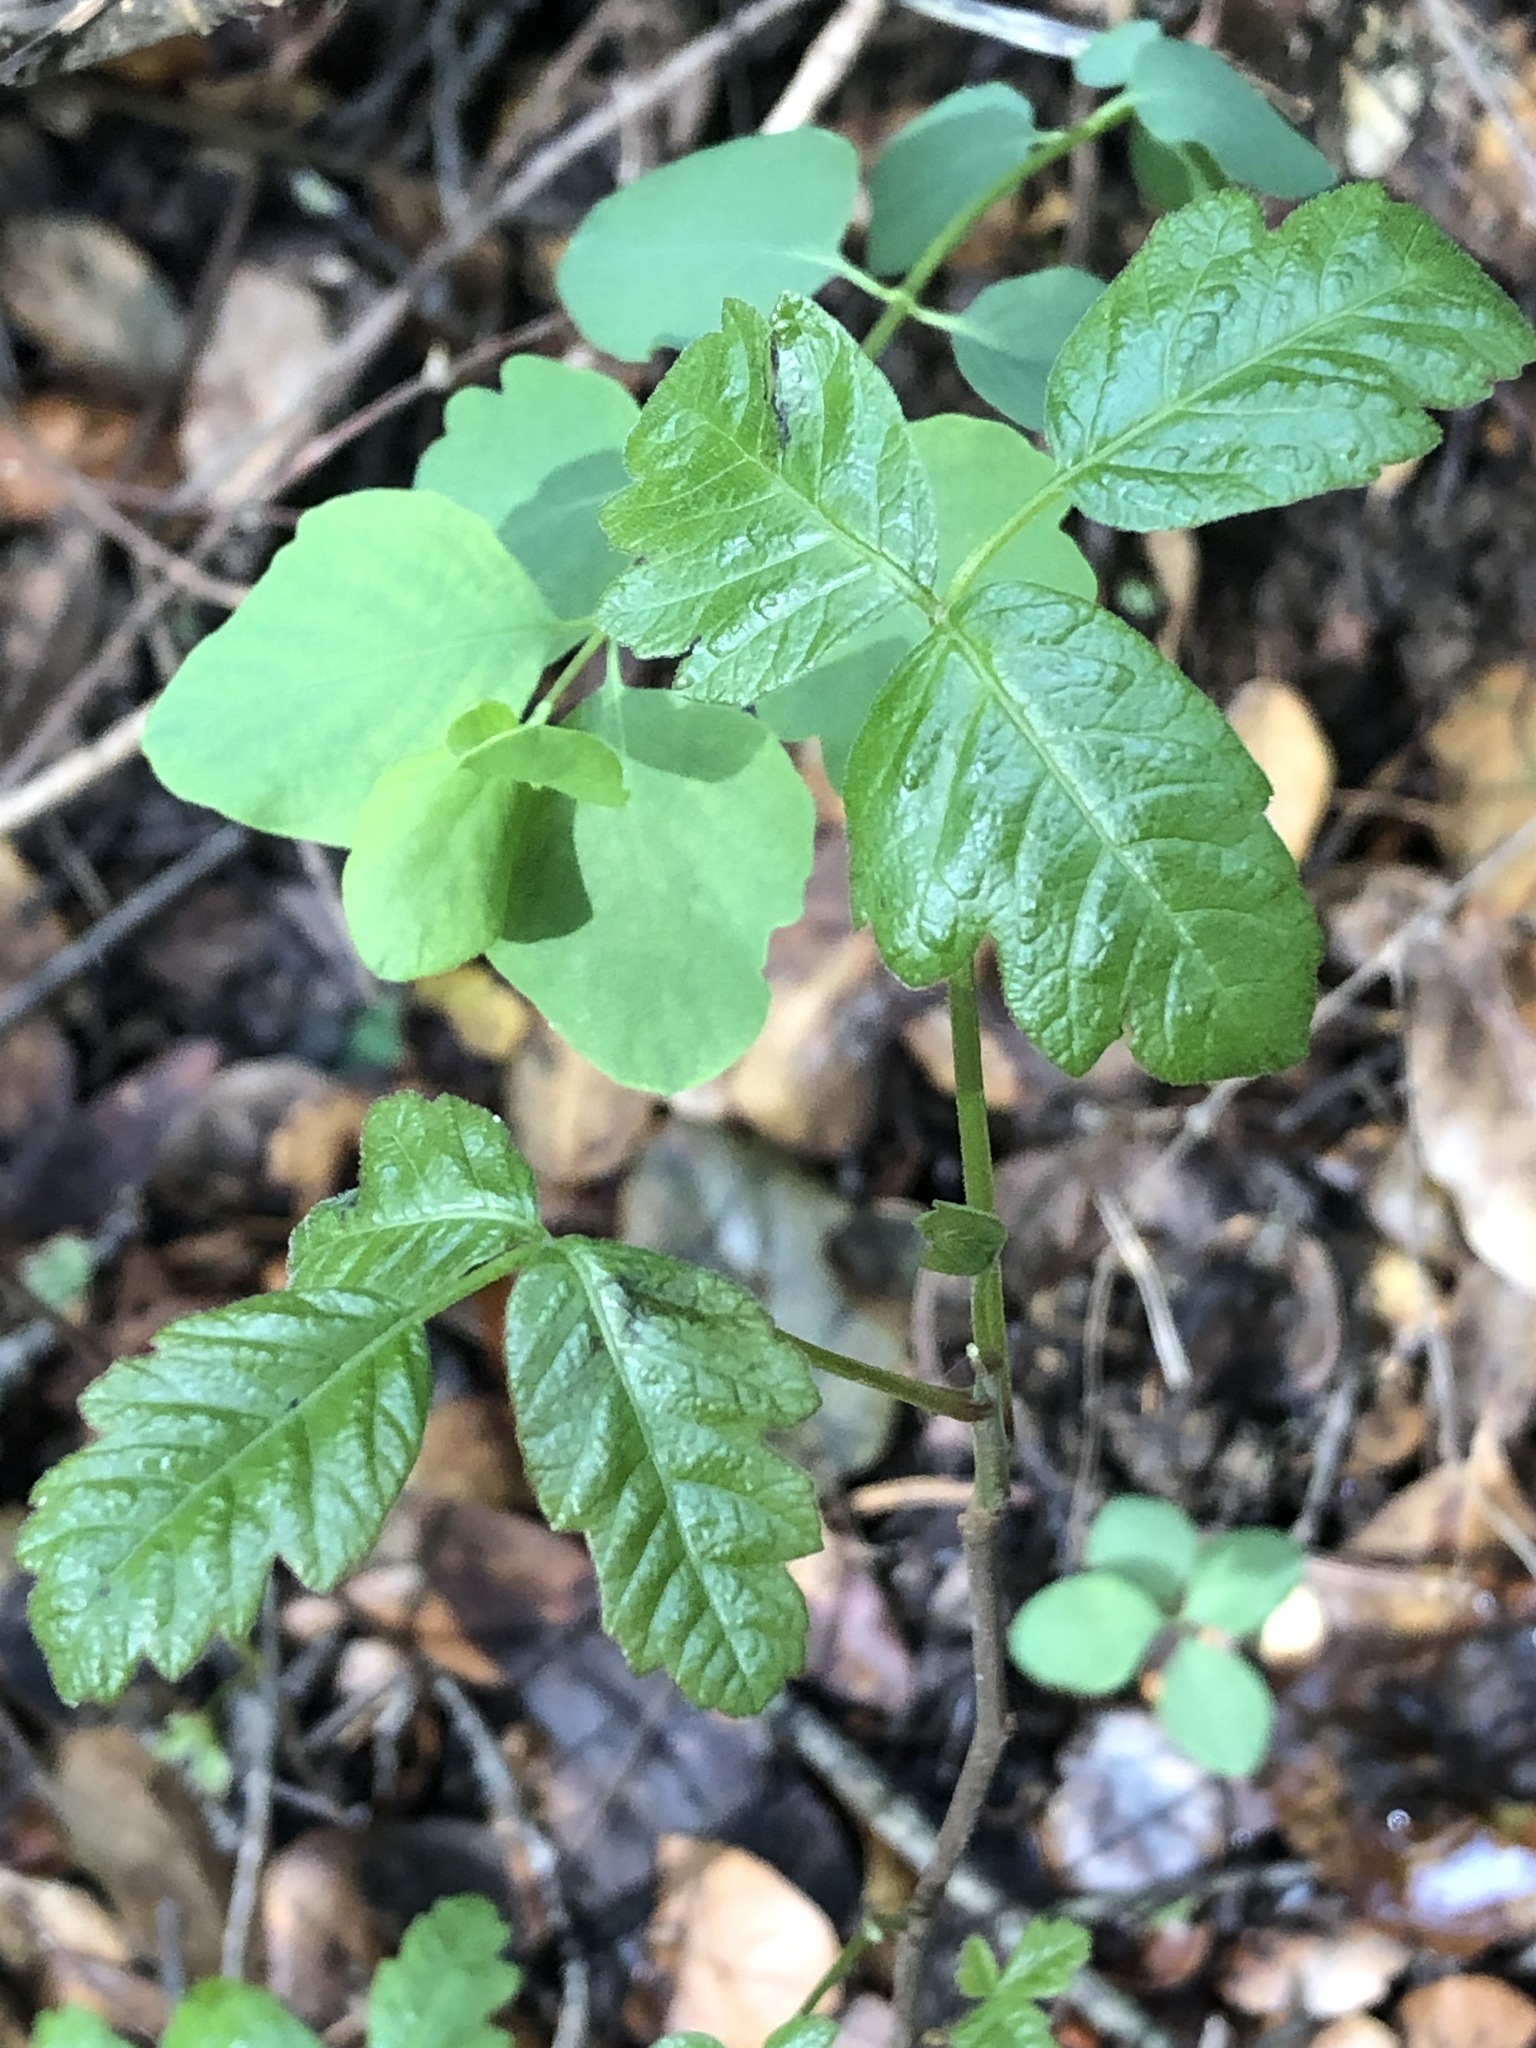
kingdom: Plantae
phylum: Tracheophyta
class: Magnoliopsida
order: Sapindales
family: Anacardiaceae
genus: Toxicodendron
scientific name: Toxicodendron diversilobum
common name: Pacific poison-oak
